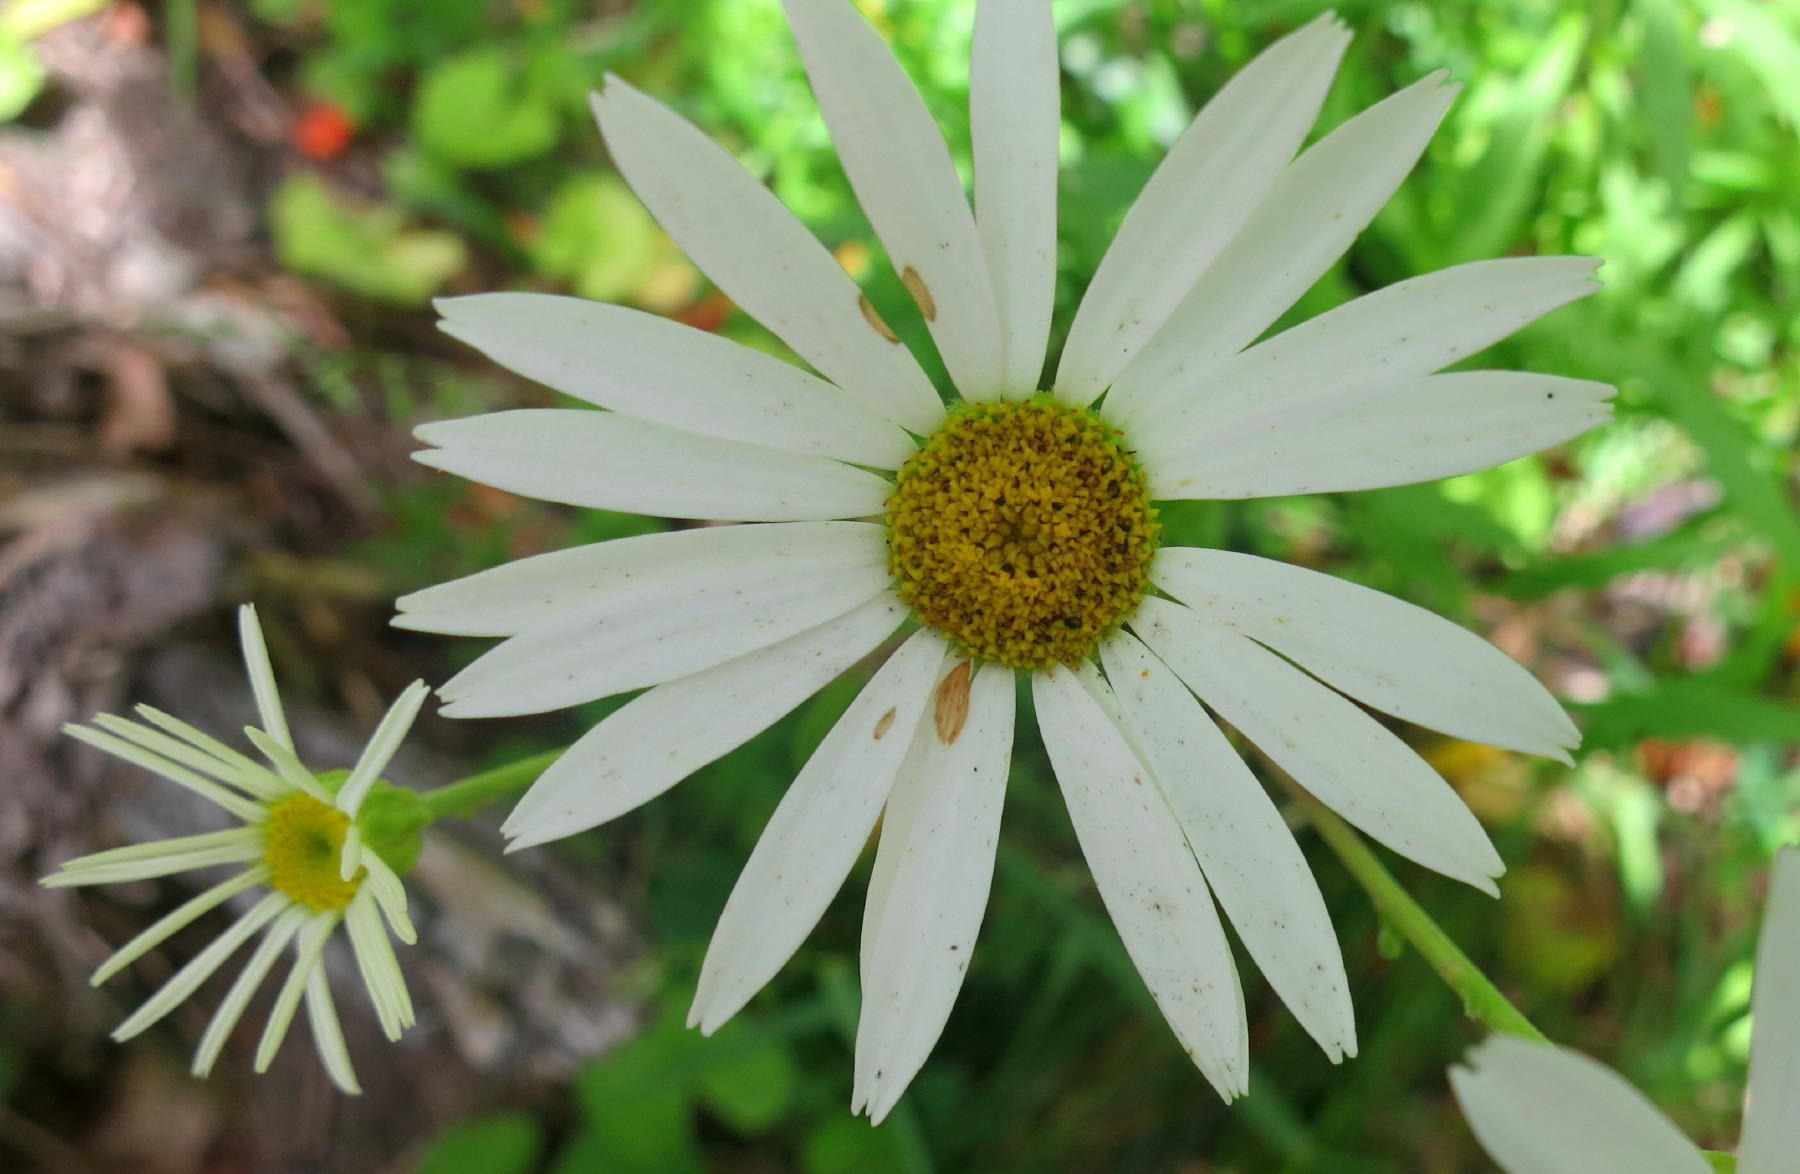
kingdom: Plantae
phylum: Tracheophyta
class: Magnoliopsida
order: Asterales
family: Asteraceae
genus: Osmitopsis
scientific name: Osmitopsis osmitoides
